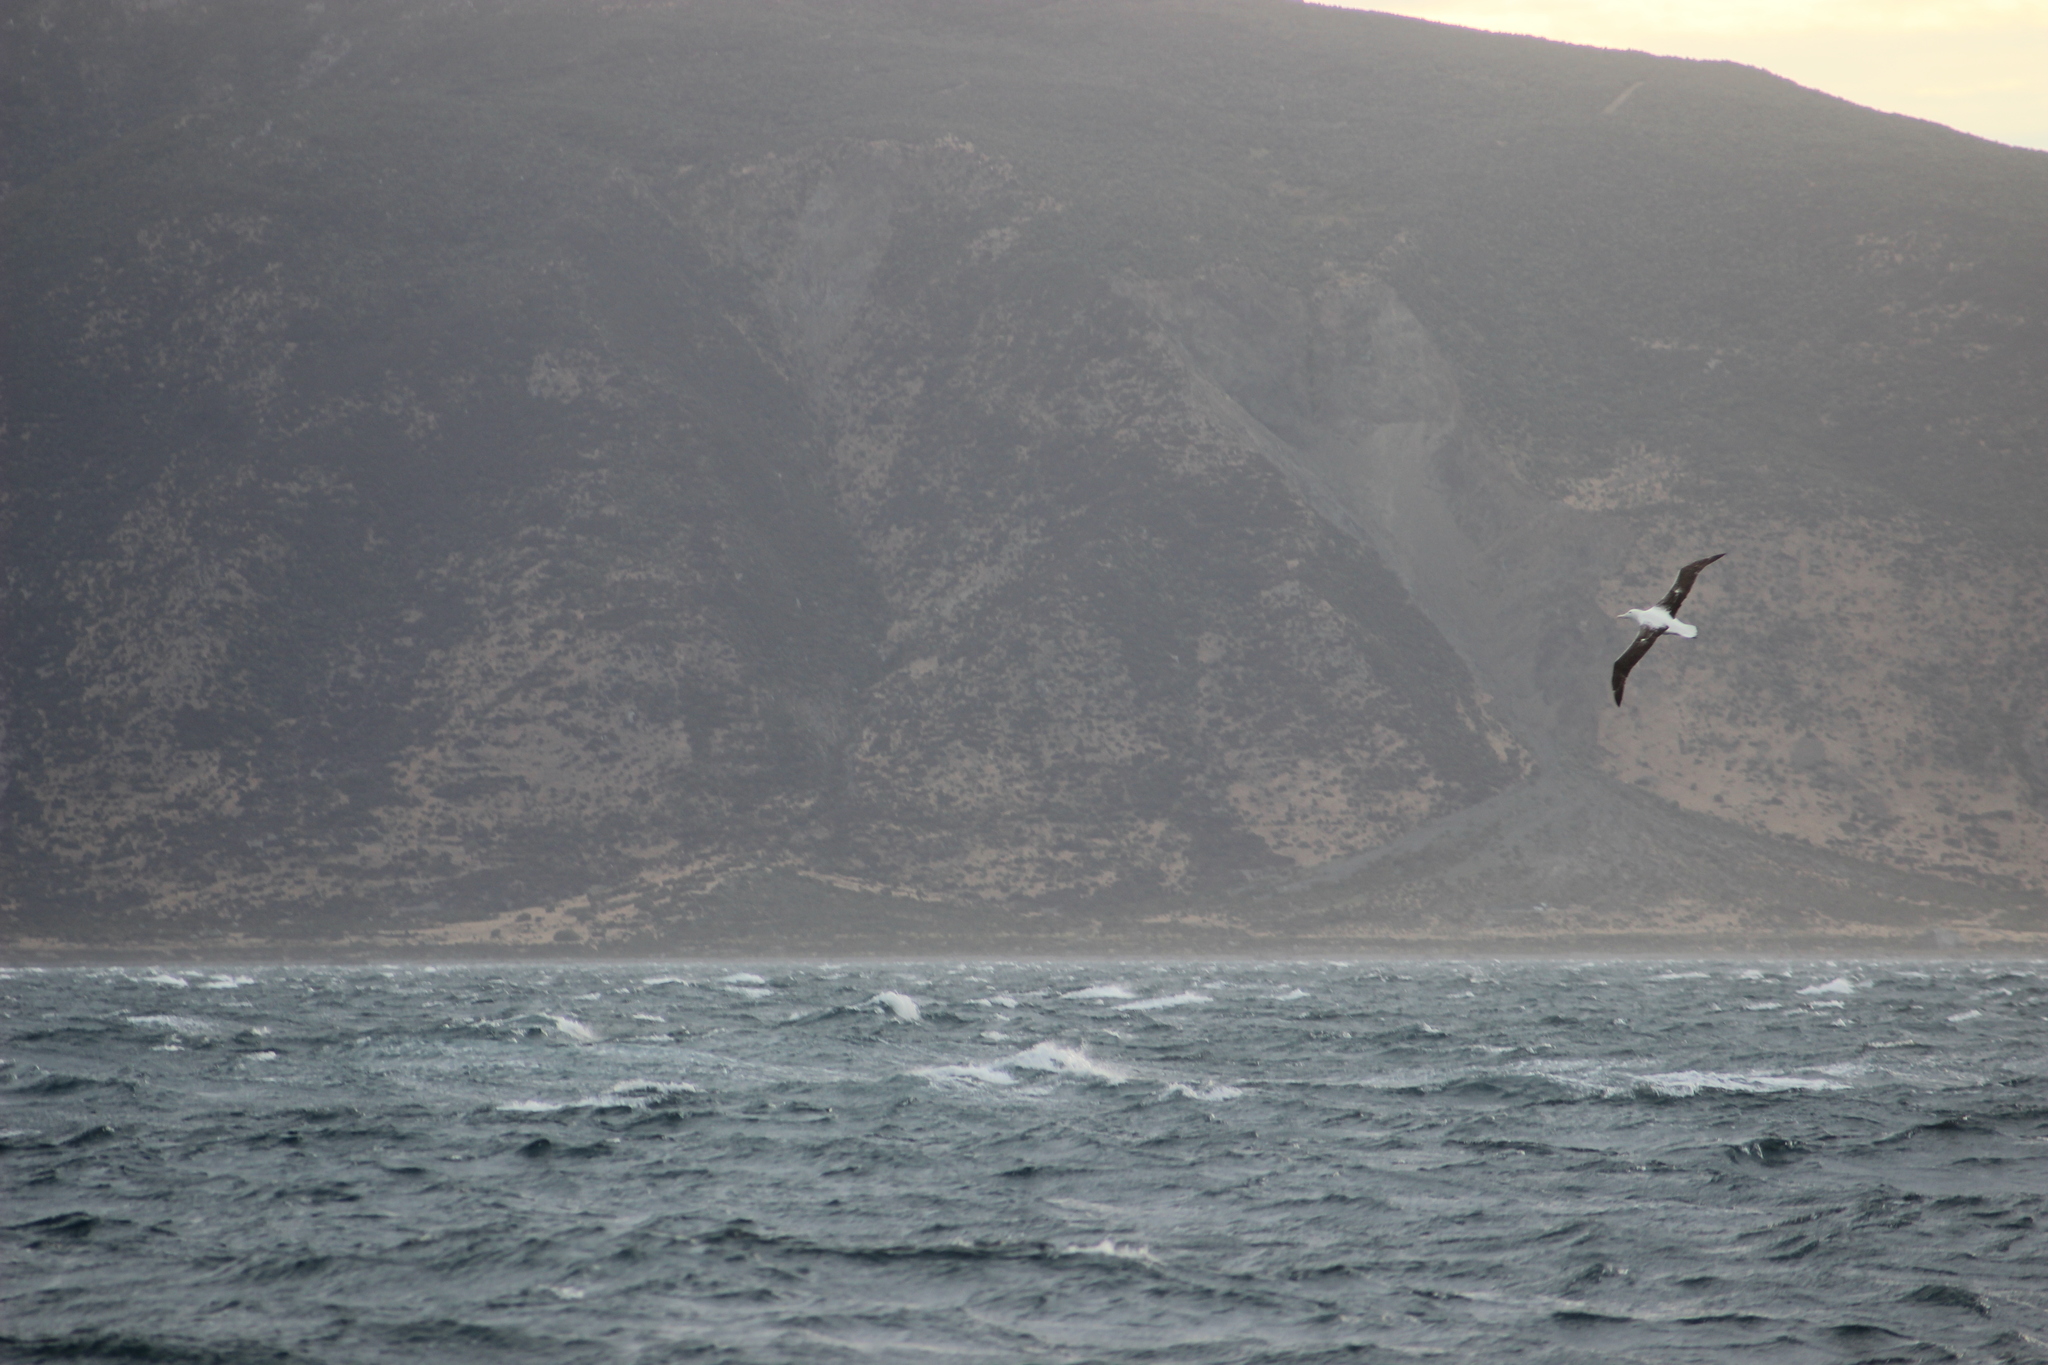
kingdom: Animalia
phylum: Chordata
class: Aves
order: Procellariiformes
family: Diomedeidae
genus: Diomedea
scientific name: Diomedea sanfordi
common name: Northern royal albatross
